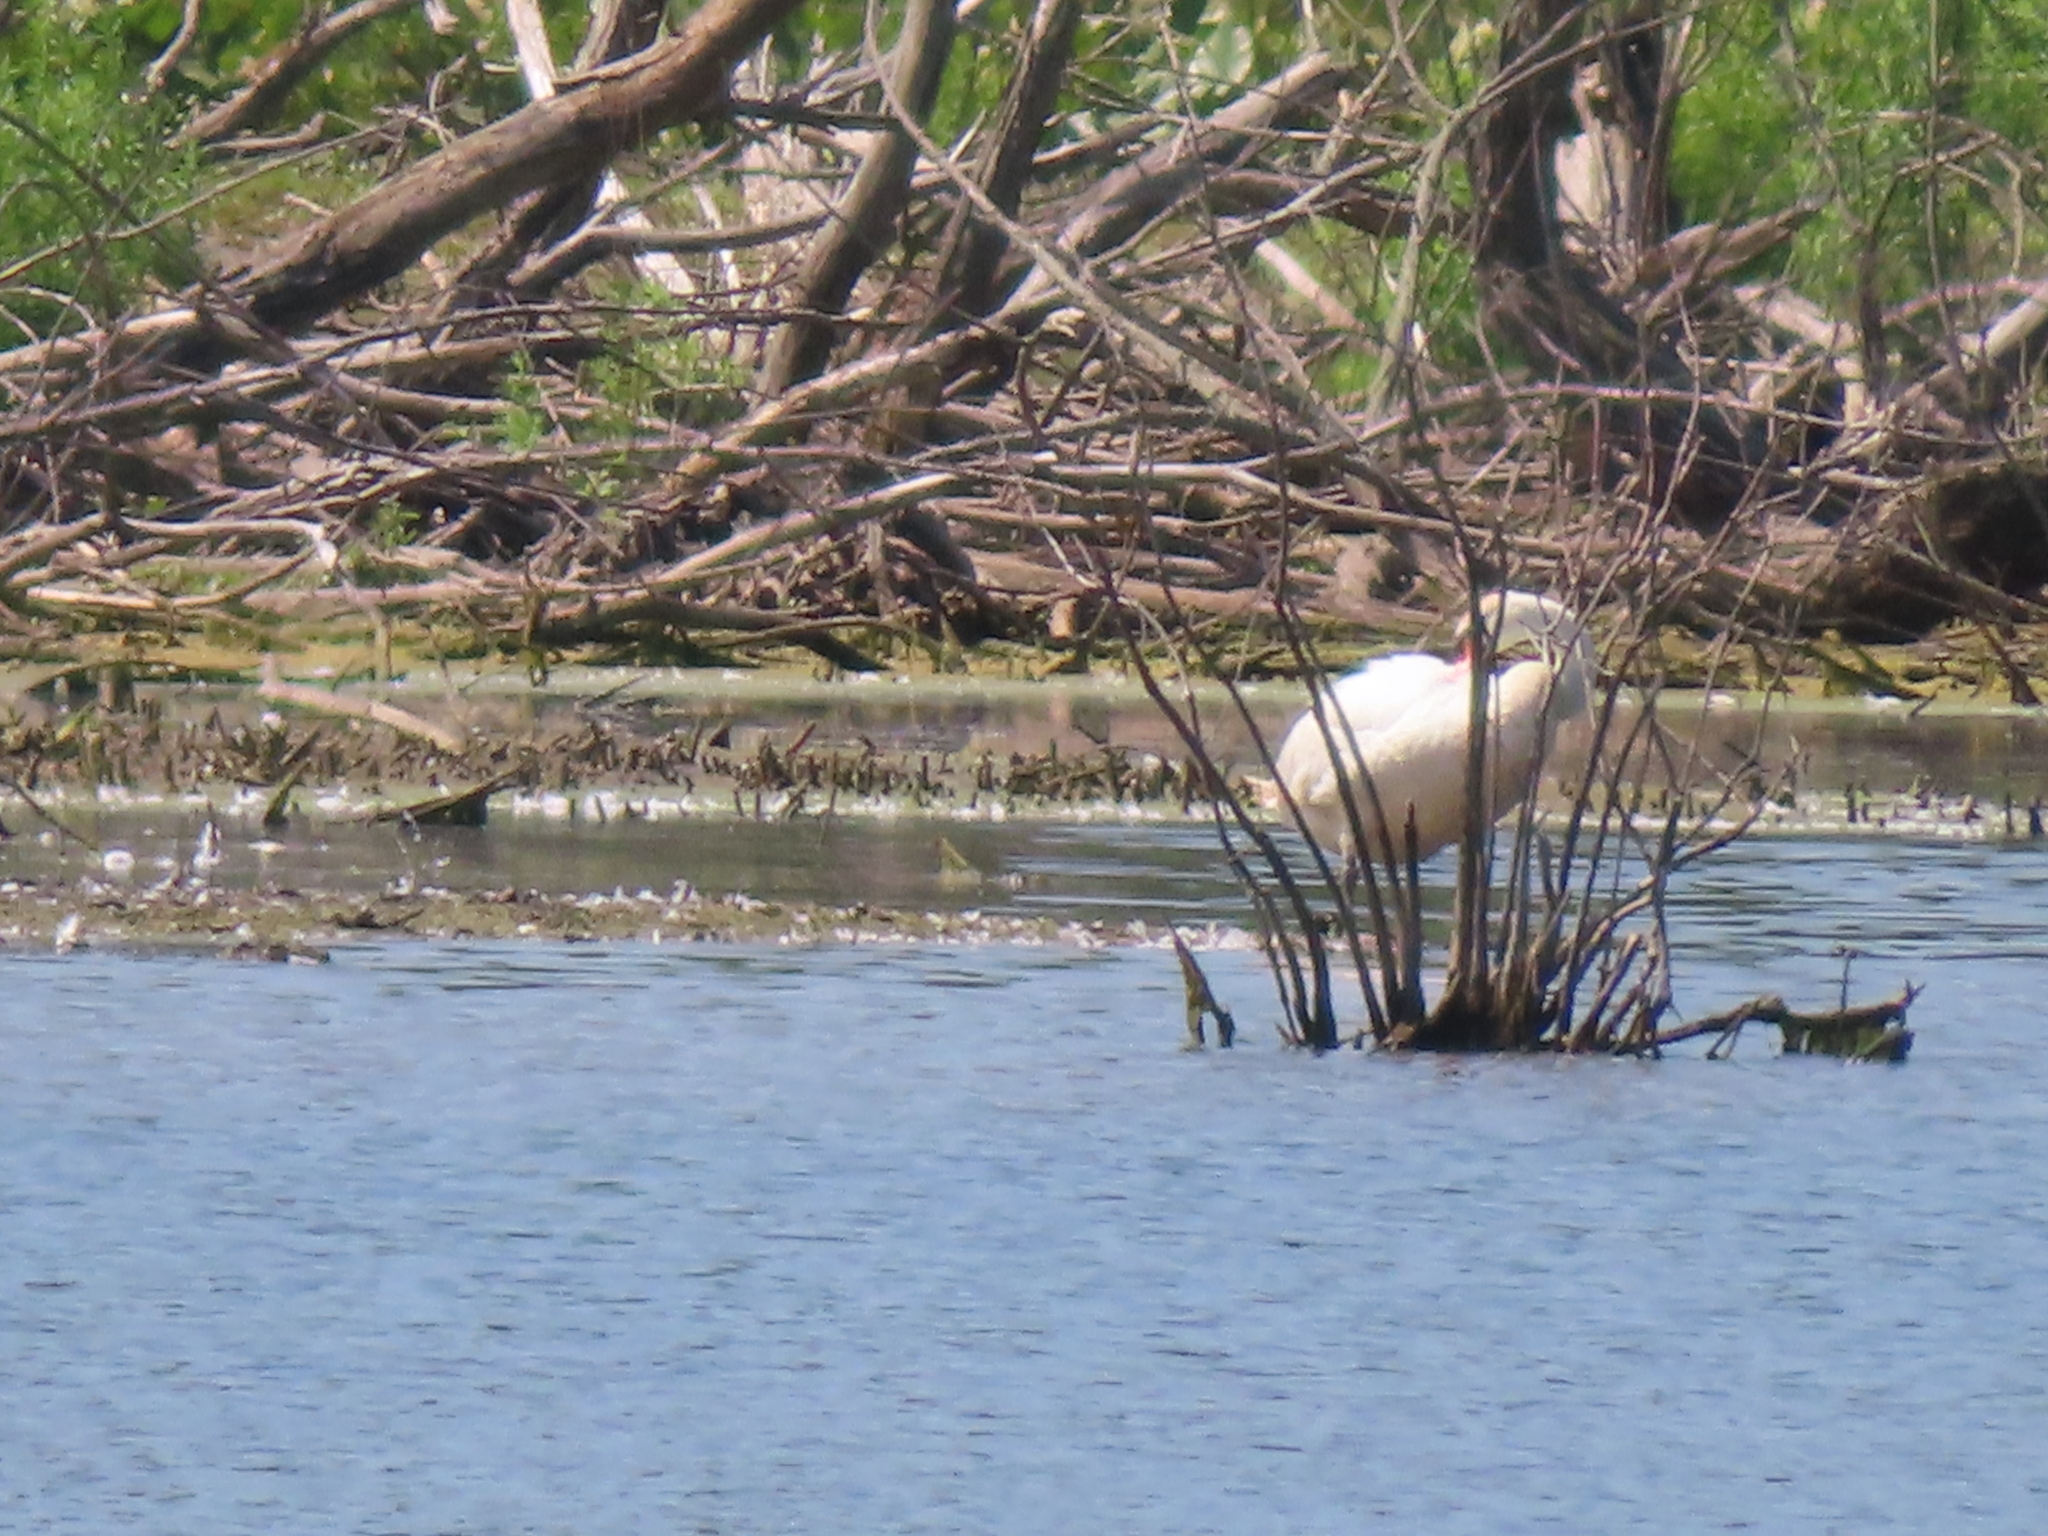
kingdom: Animalia
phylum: Chordata
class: Aves
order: Anseriformes
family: Anatidae
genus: Cygnus
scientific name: Cygnus olor
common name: Mute swan
